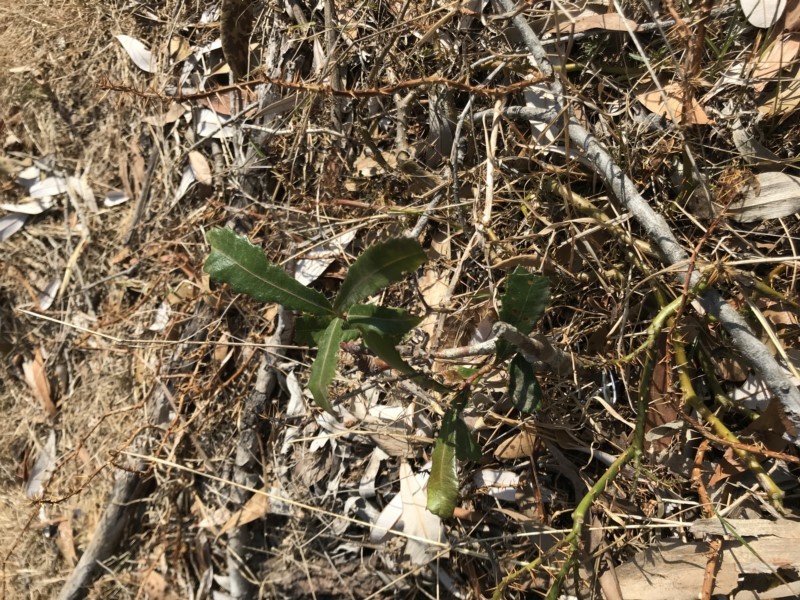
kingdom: Plantae
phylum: Tracheophyta
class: Magnoliopsida
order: Proteales
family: Proteaceae
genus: Banksia
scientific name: Banksia integrifolia
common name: White-honeysuckle
